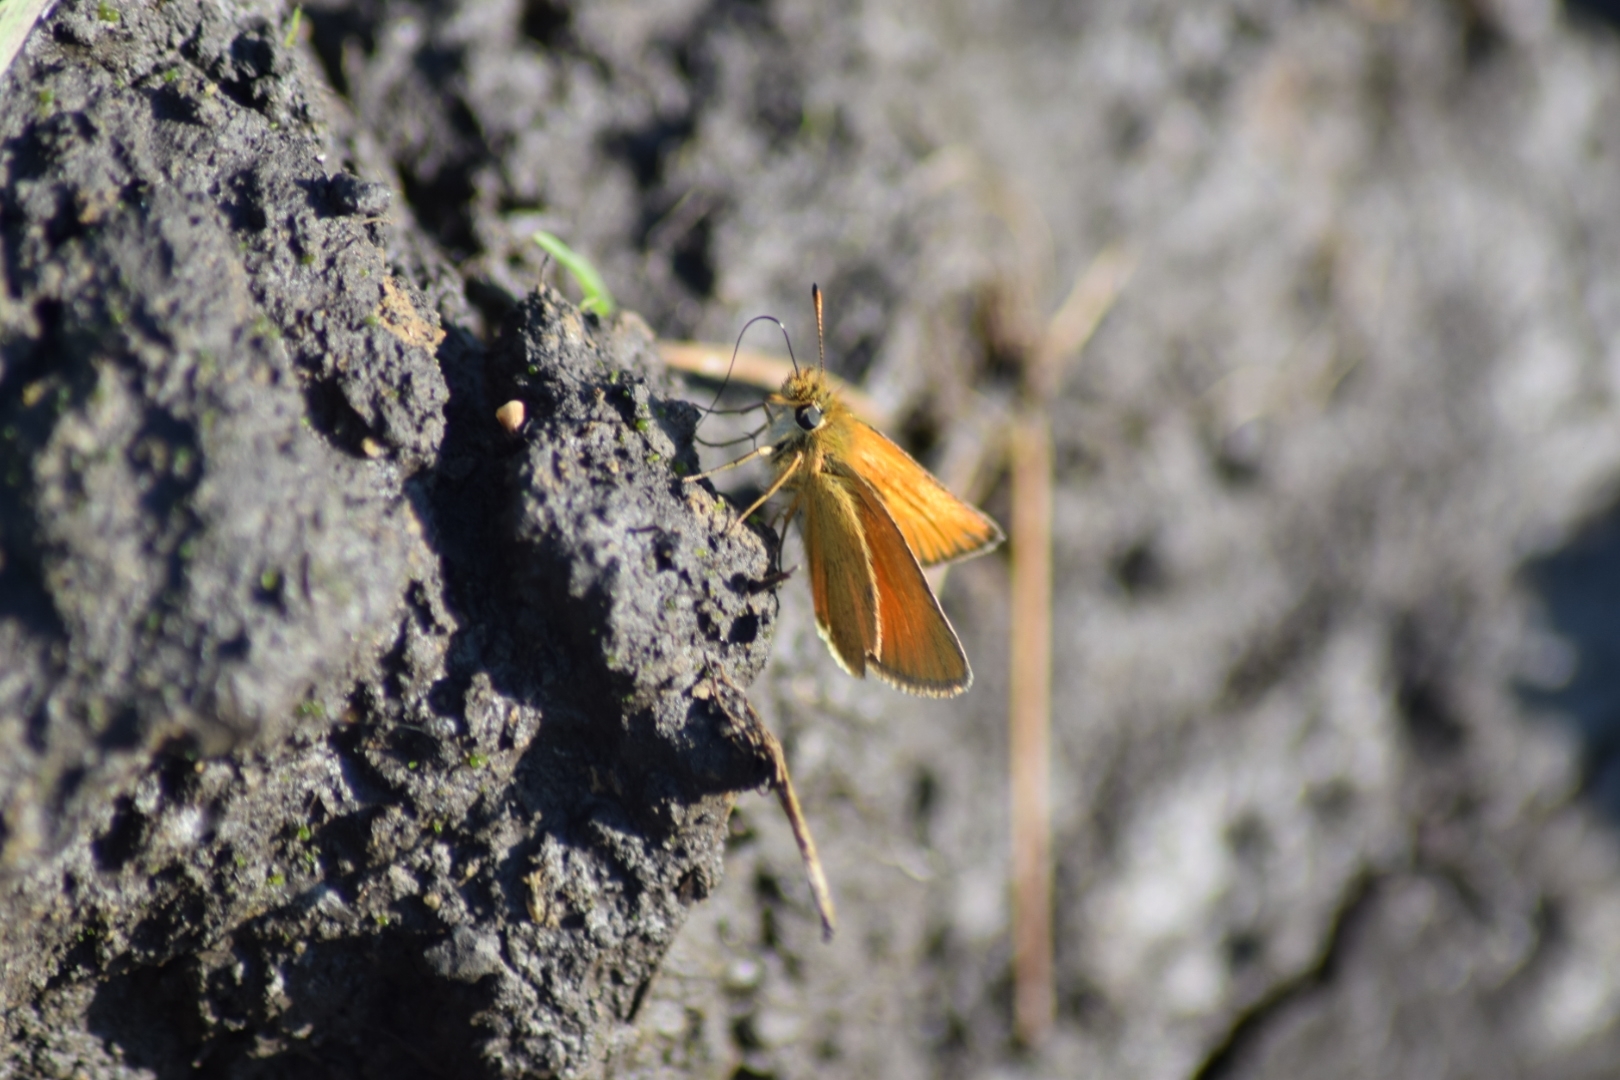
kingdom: Animalia
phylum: Arthropoda
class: Insecta
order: Lepidoptera
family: Hesperiidae
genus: Thymelicus
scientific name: Thymelicus lineola
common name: Essex skipper
